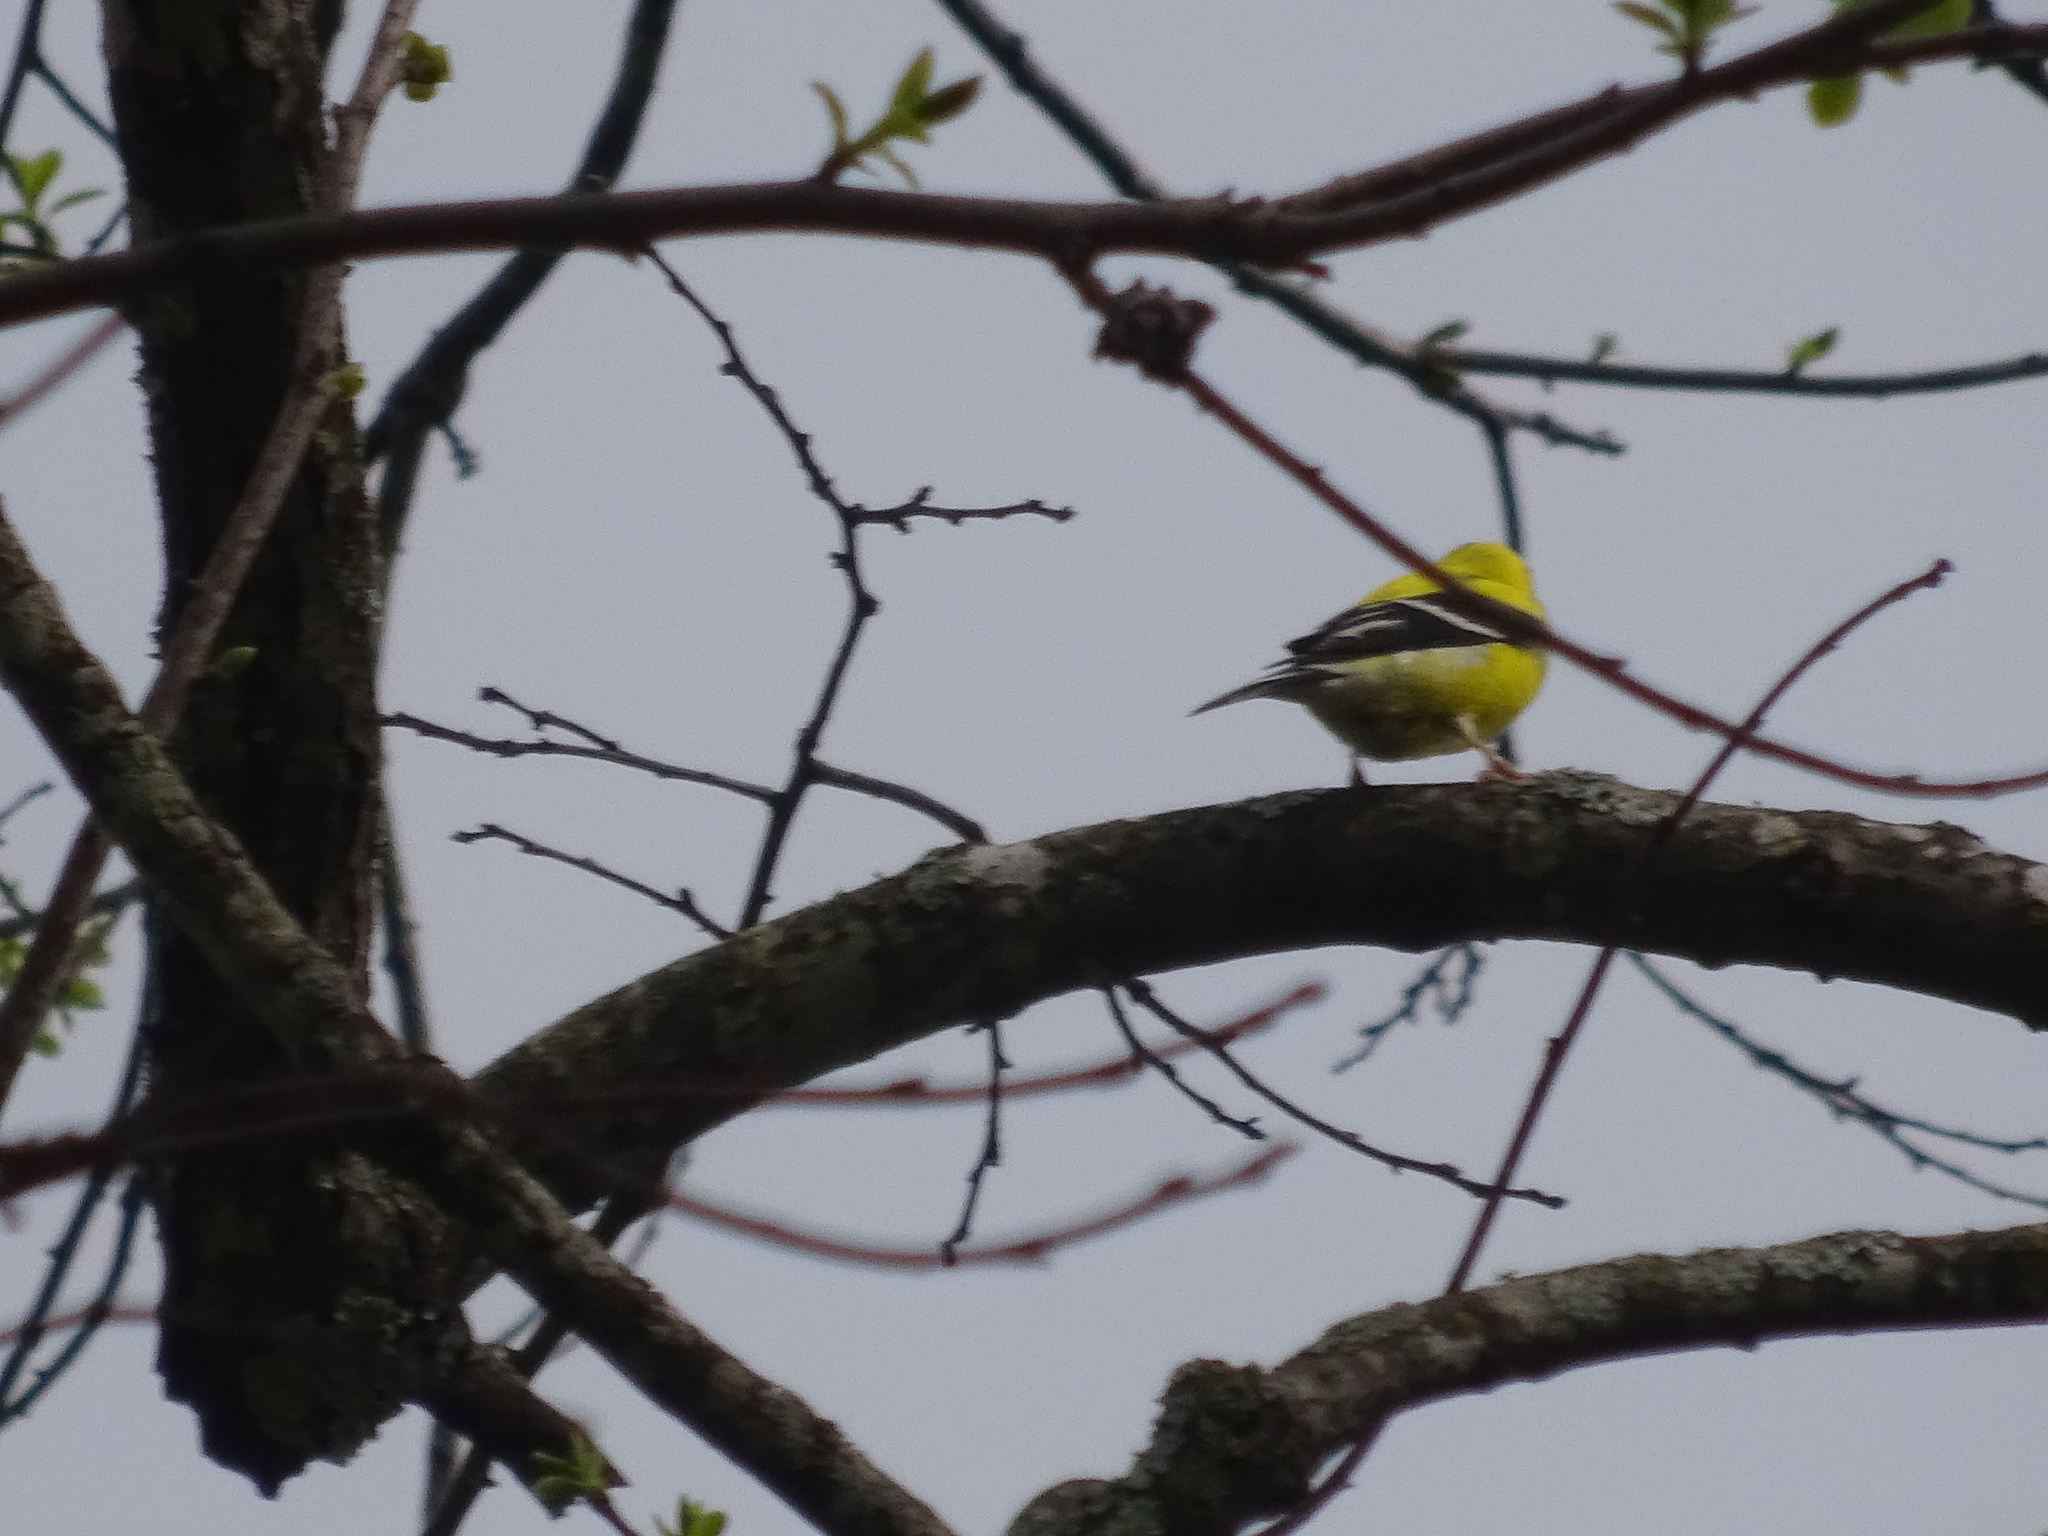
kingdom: Animalia
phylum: Chordata
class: Aves
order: Passeriformes
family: Fringillidae
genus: Spinus
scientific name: Spinus tristis
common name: American goldfinch
